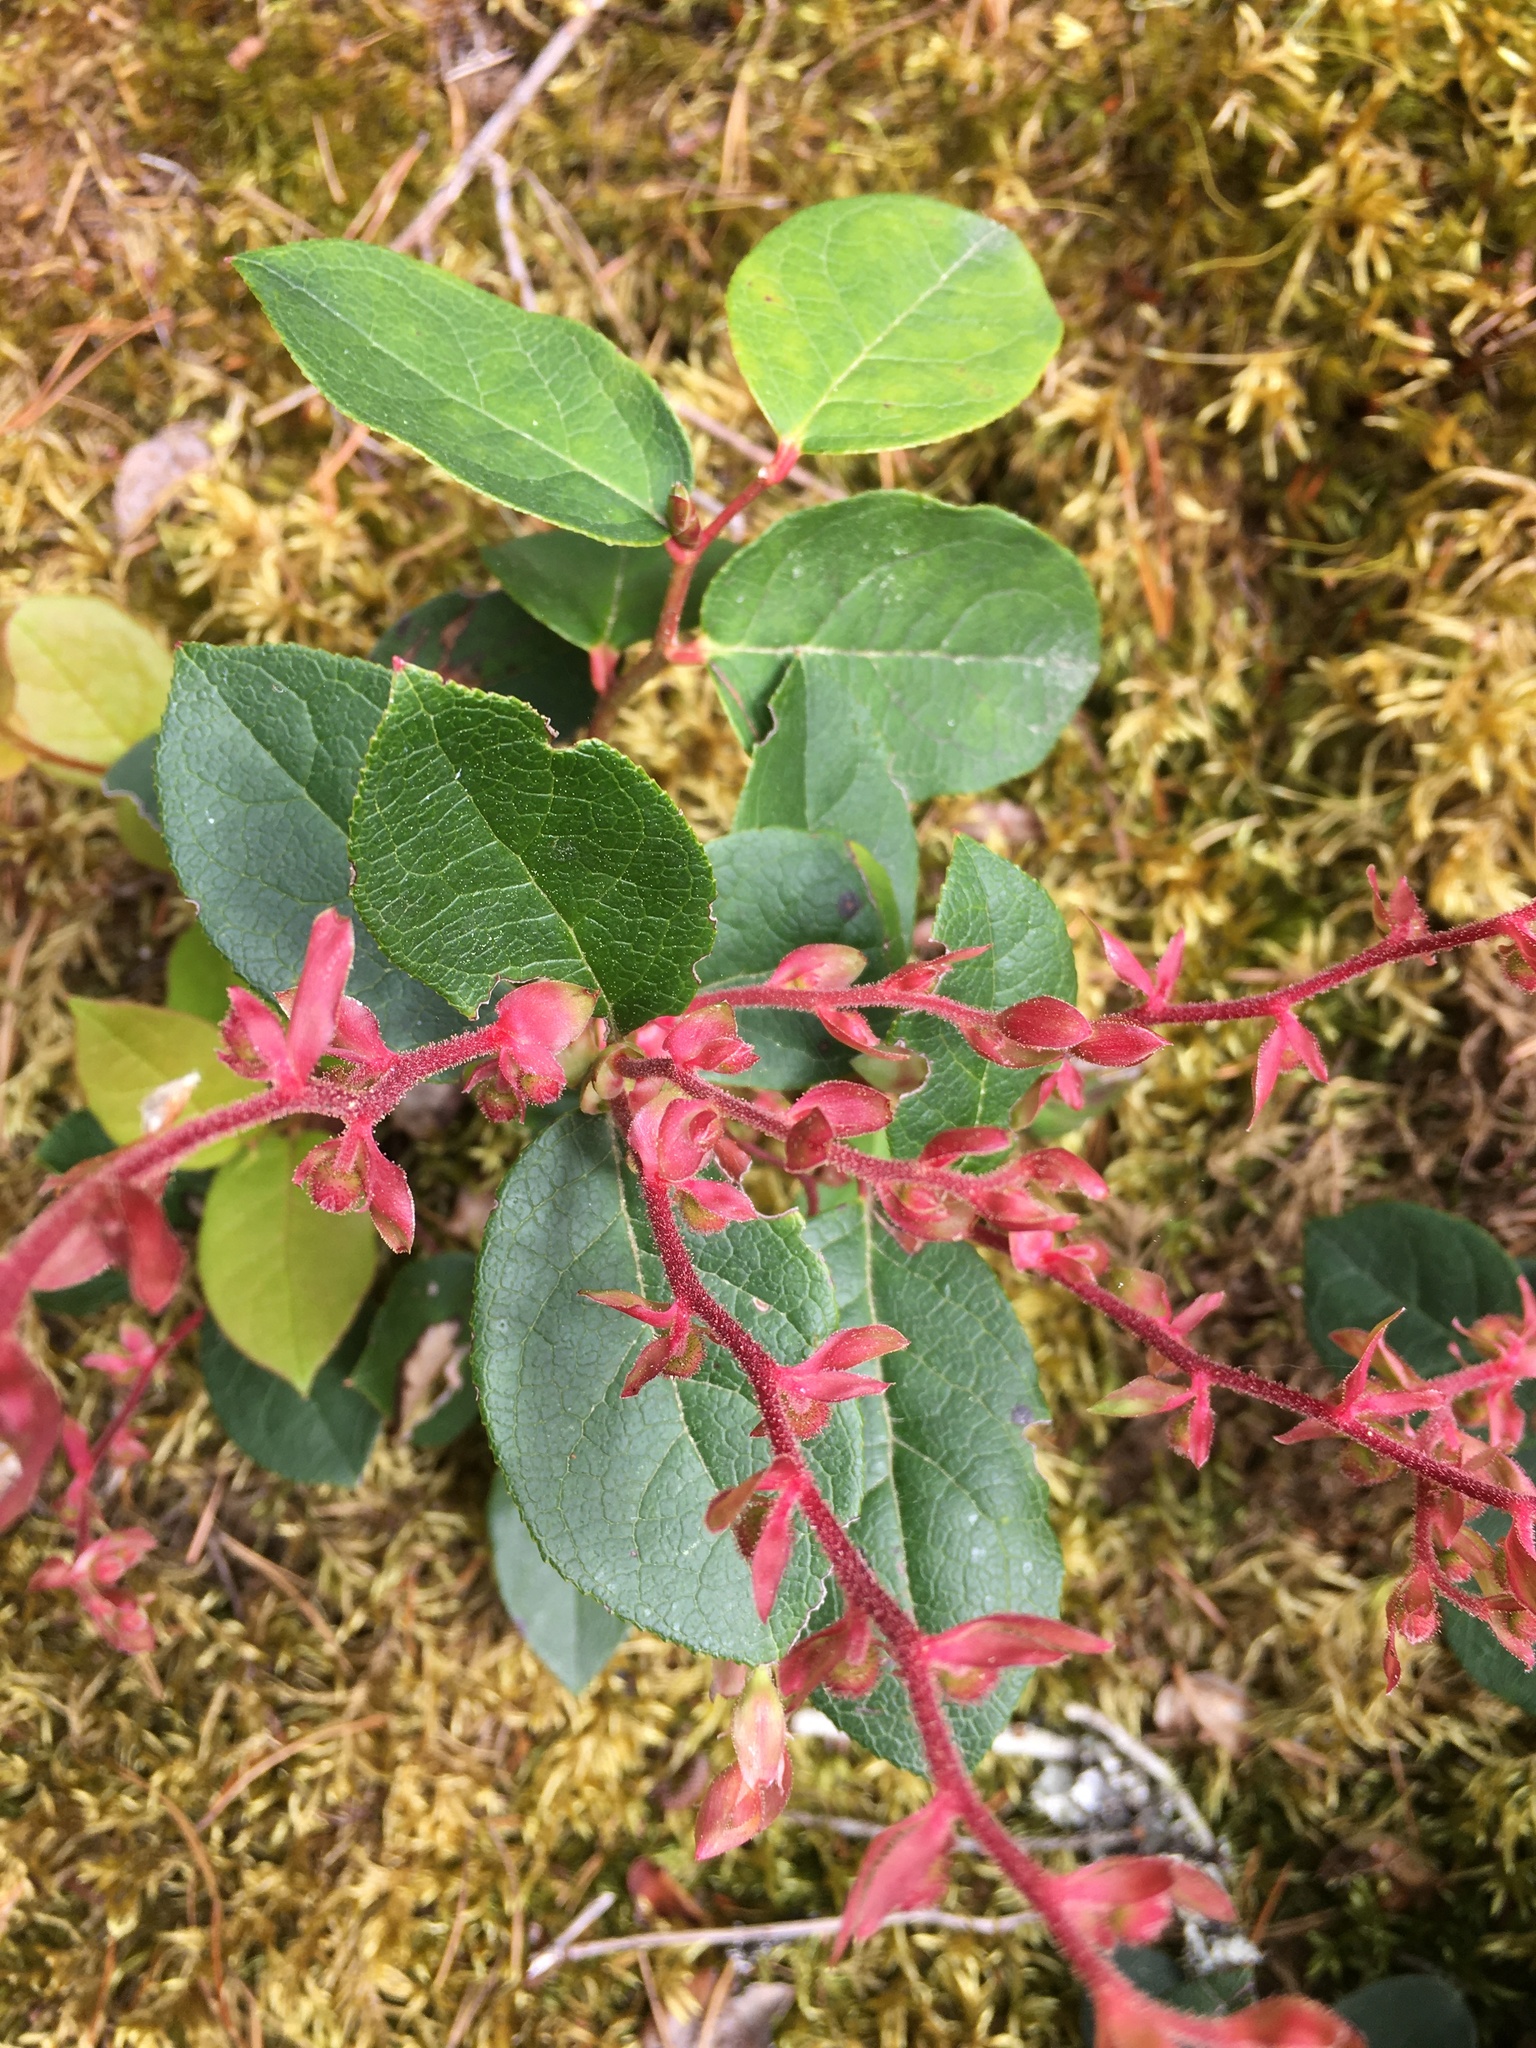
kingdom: Plantae
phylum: Tracheophyta
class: Magnoliopsida
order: Ericales
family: Ericaceae
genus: Gaultheria
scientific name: Gaultheria shallon
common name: Shallon
